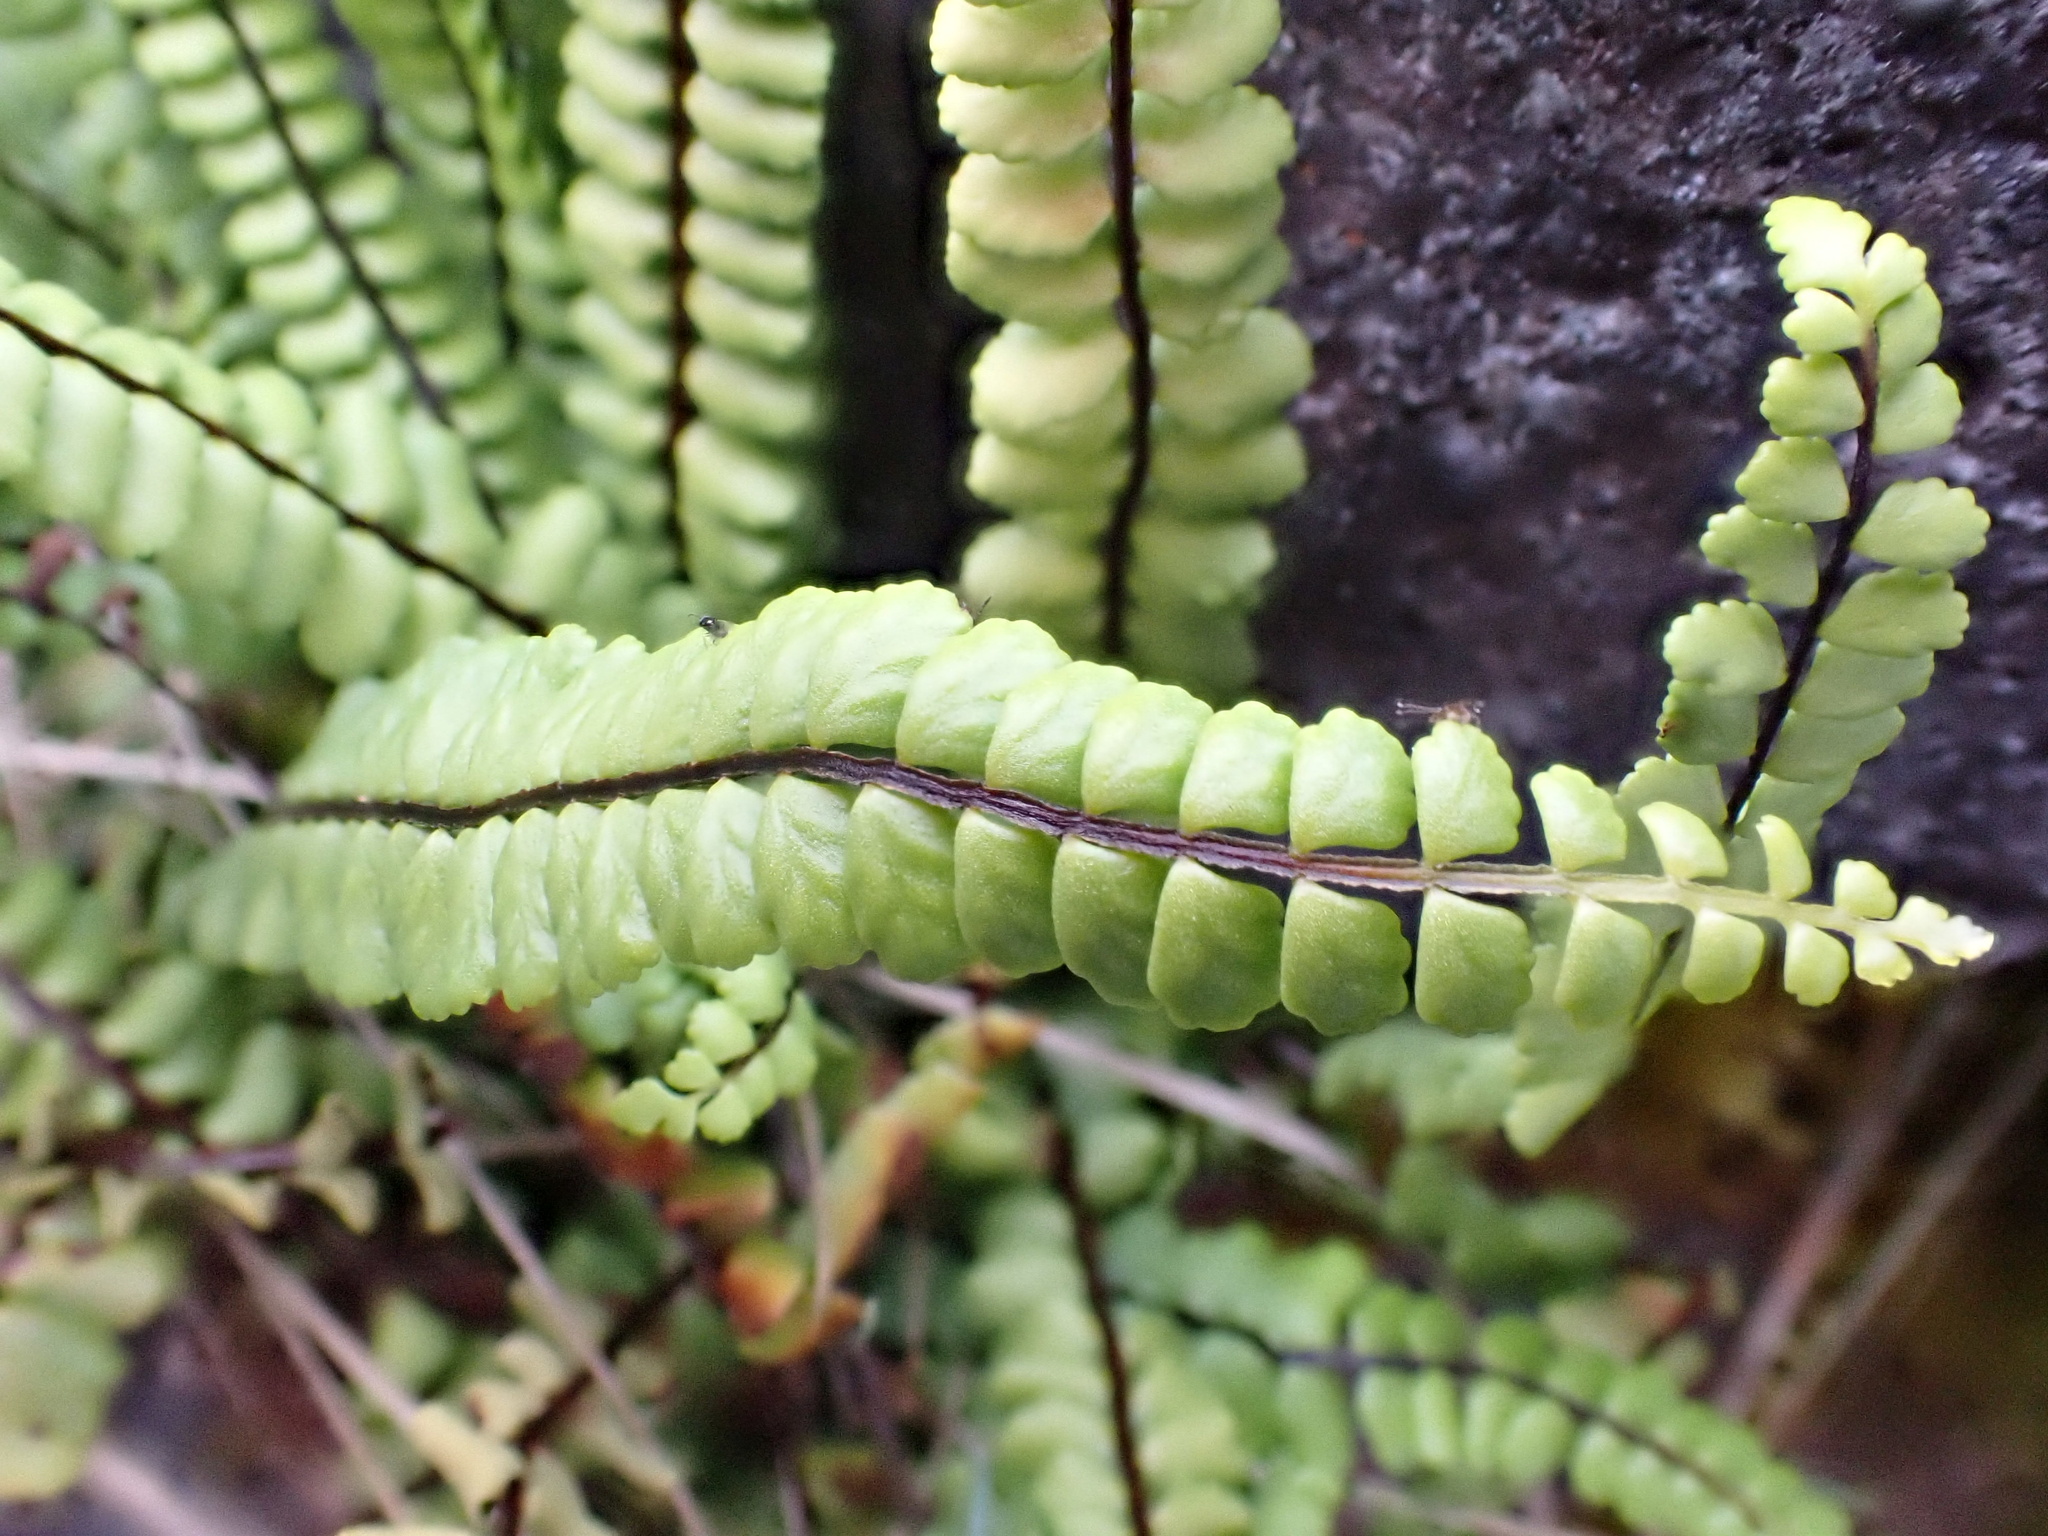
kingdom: Plantae
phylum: Tracheophyta
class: Polypodiopsida
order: Polypodiales
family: Aspleniaceae
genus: Asplenium
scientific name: Asplenium trichomanes
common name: Maidenhair spleenwort
